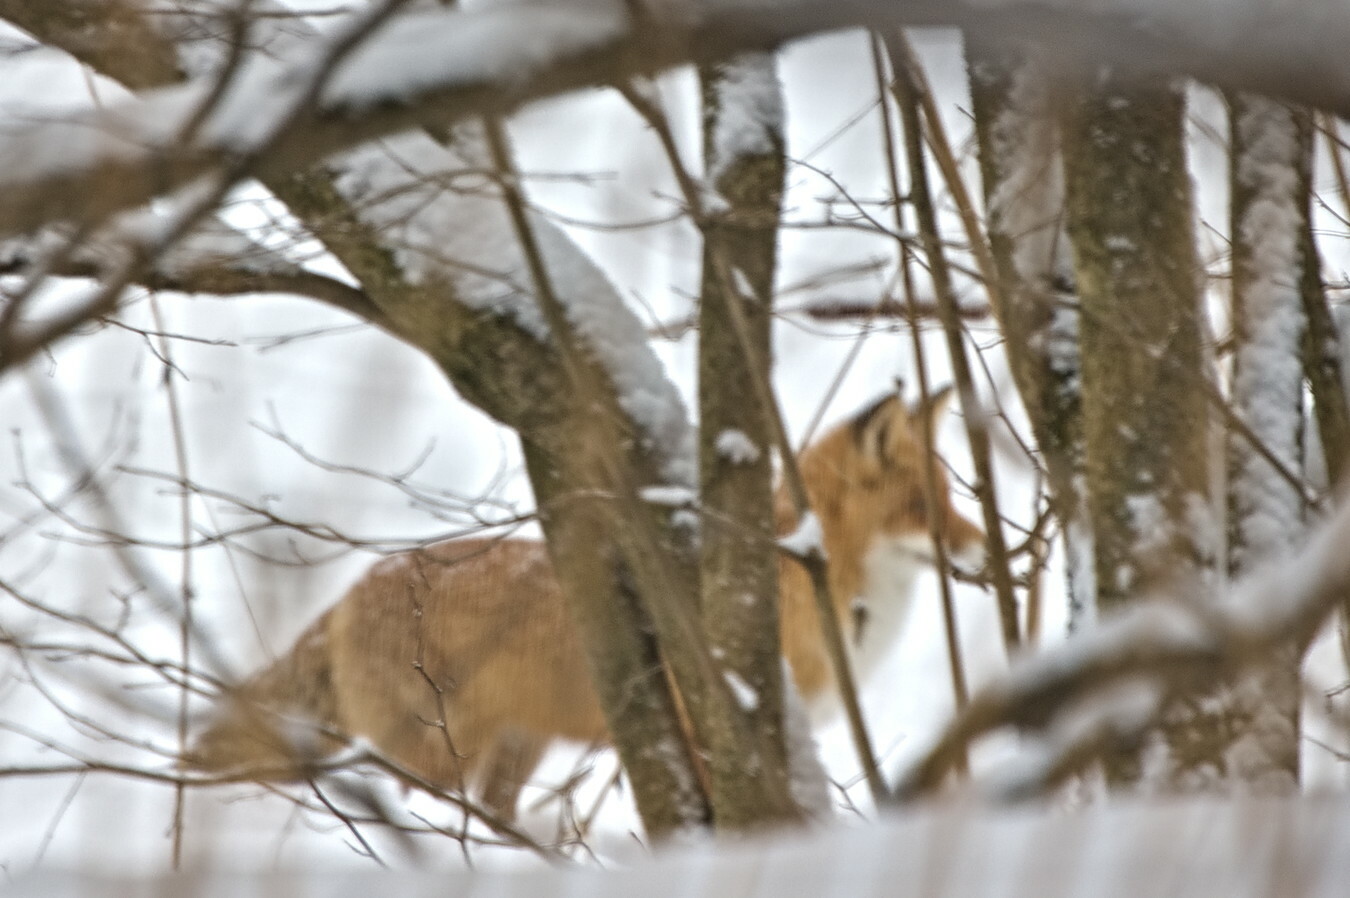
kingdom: Animalia
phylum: Chordata
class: Mammalia
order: Carnivora
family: Canidae
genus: Vulpes
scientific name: Vulpes vulpes
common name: Red fox
